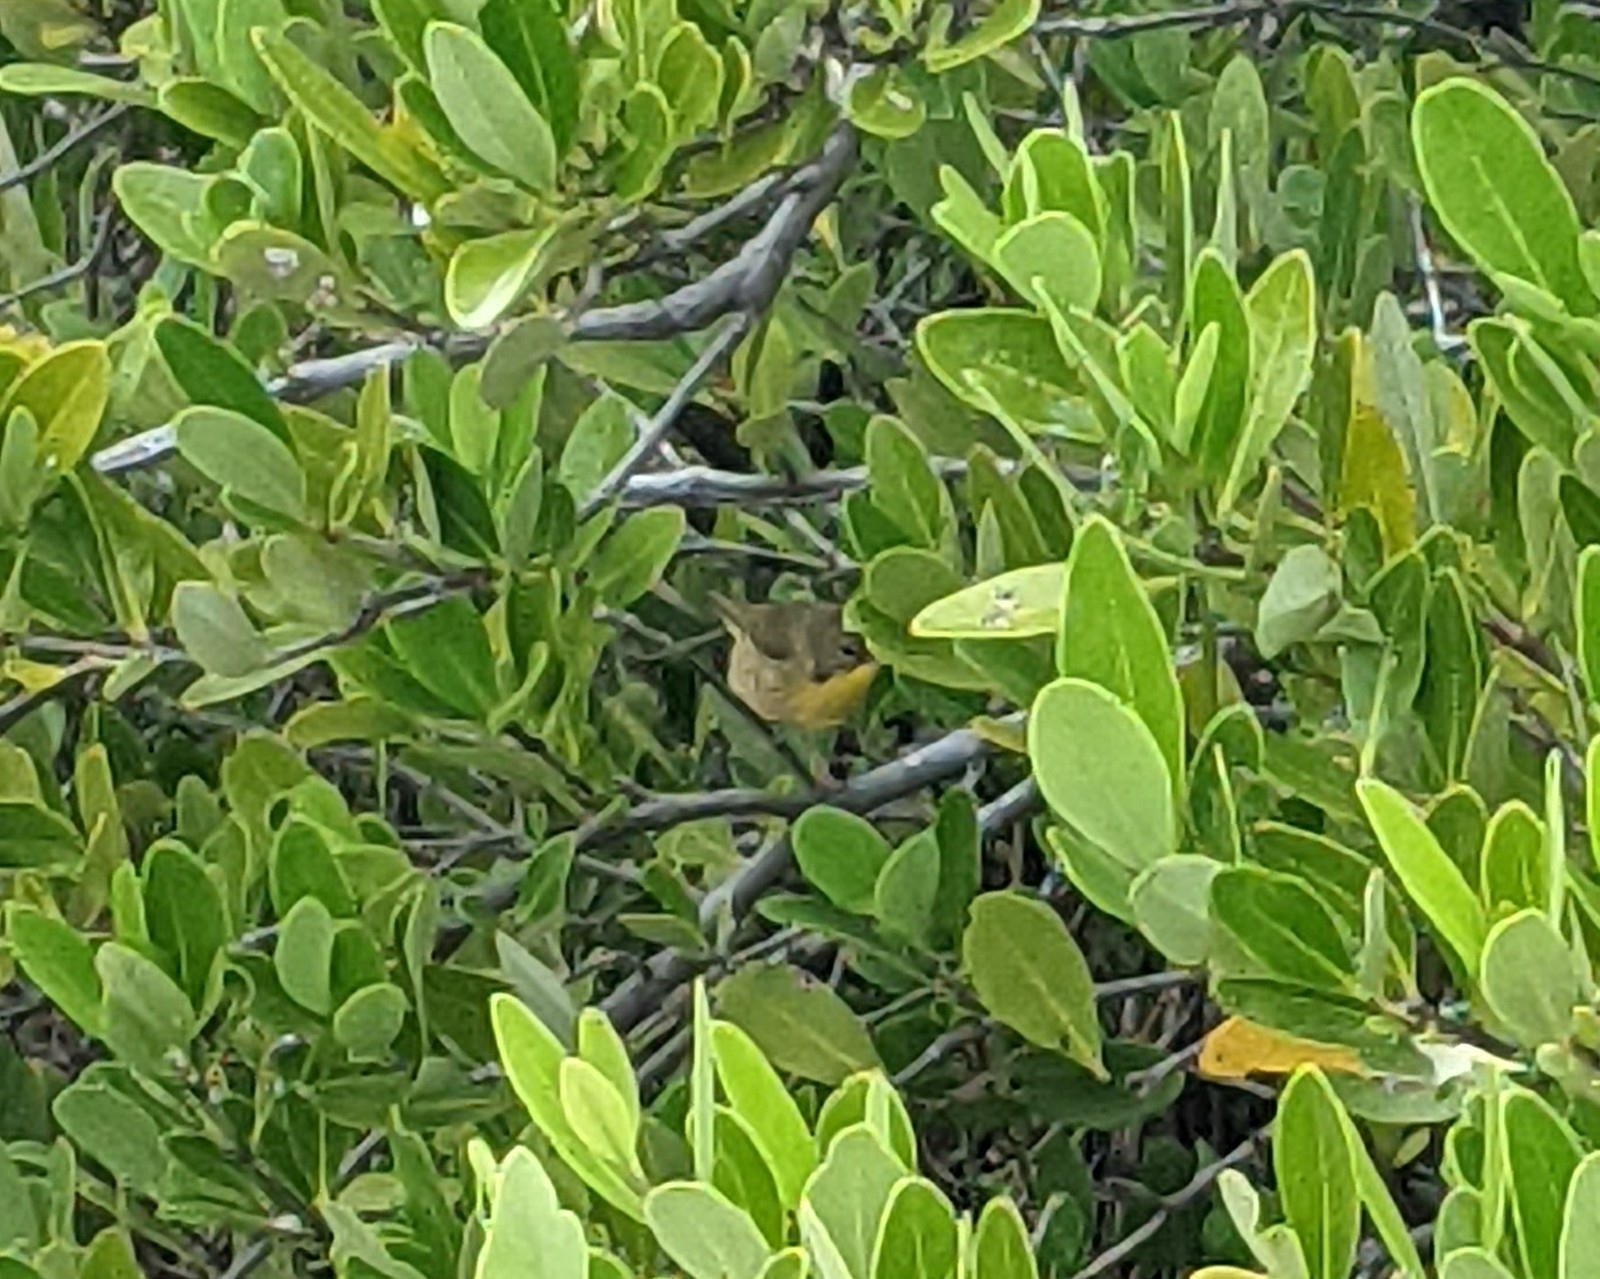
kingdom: Animalia
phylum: Chordata
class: Aves
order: Passeriformes
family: Parulidae
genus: Geothlypis
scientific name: Geothlypis trichas
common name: Common yellowthroat
